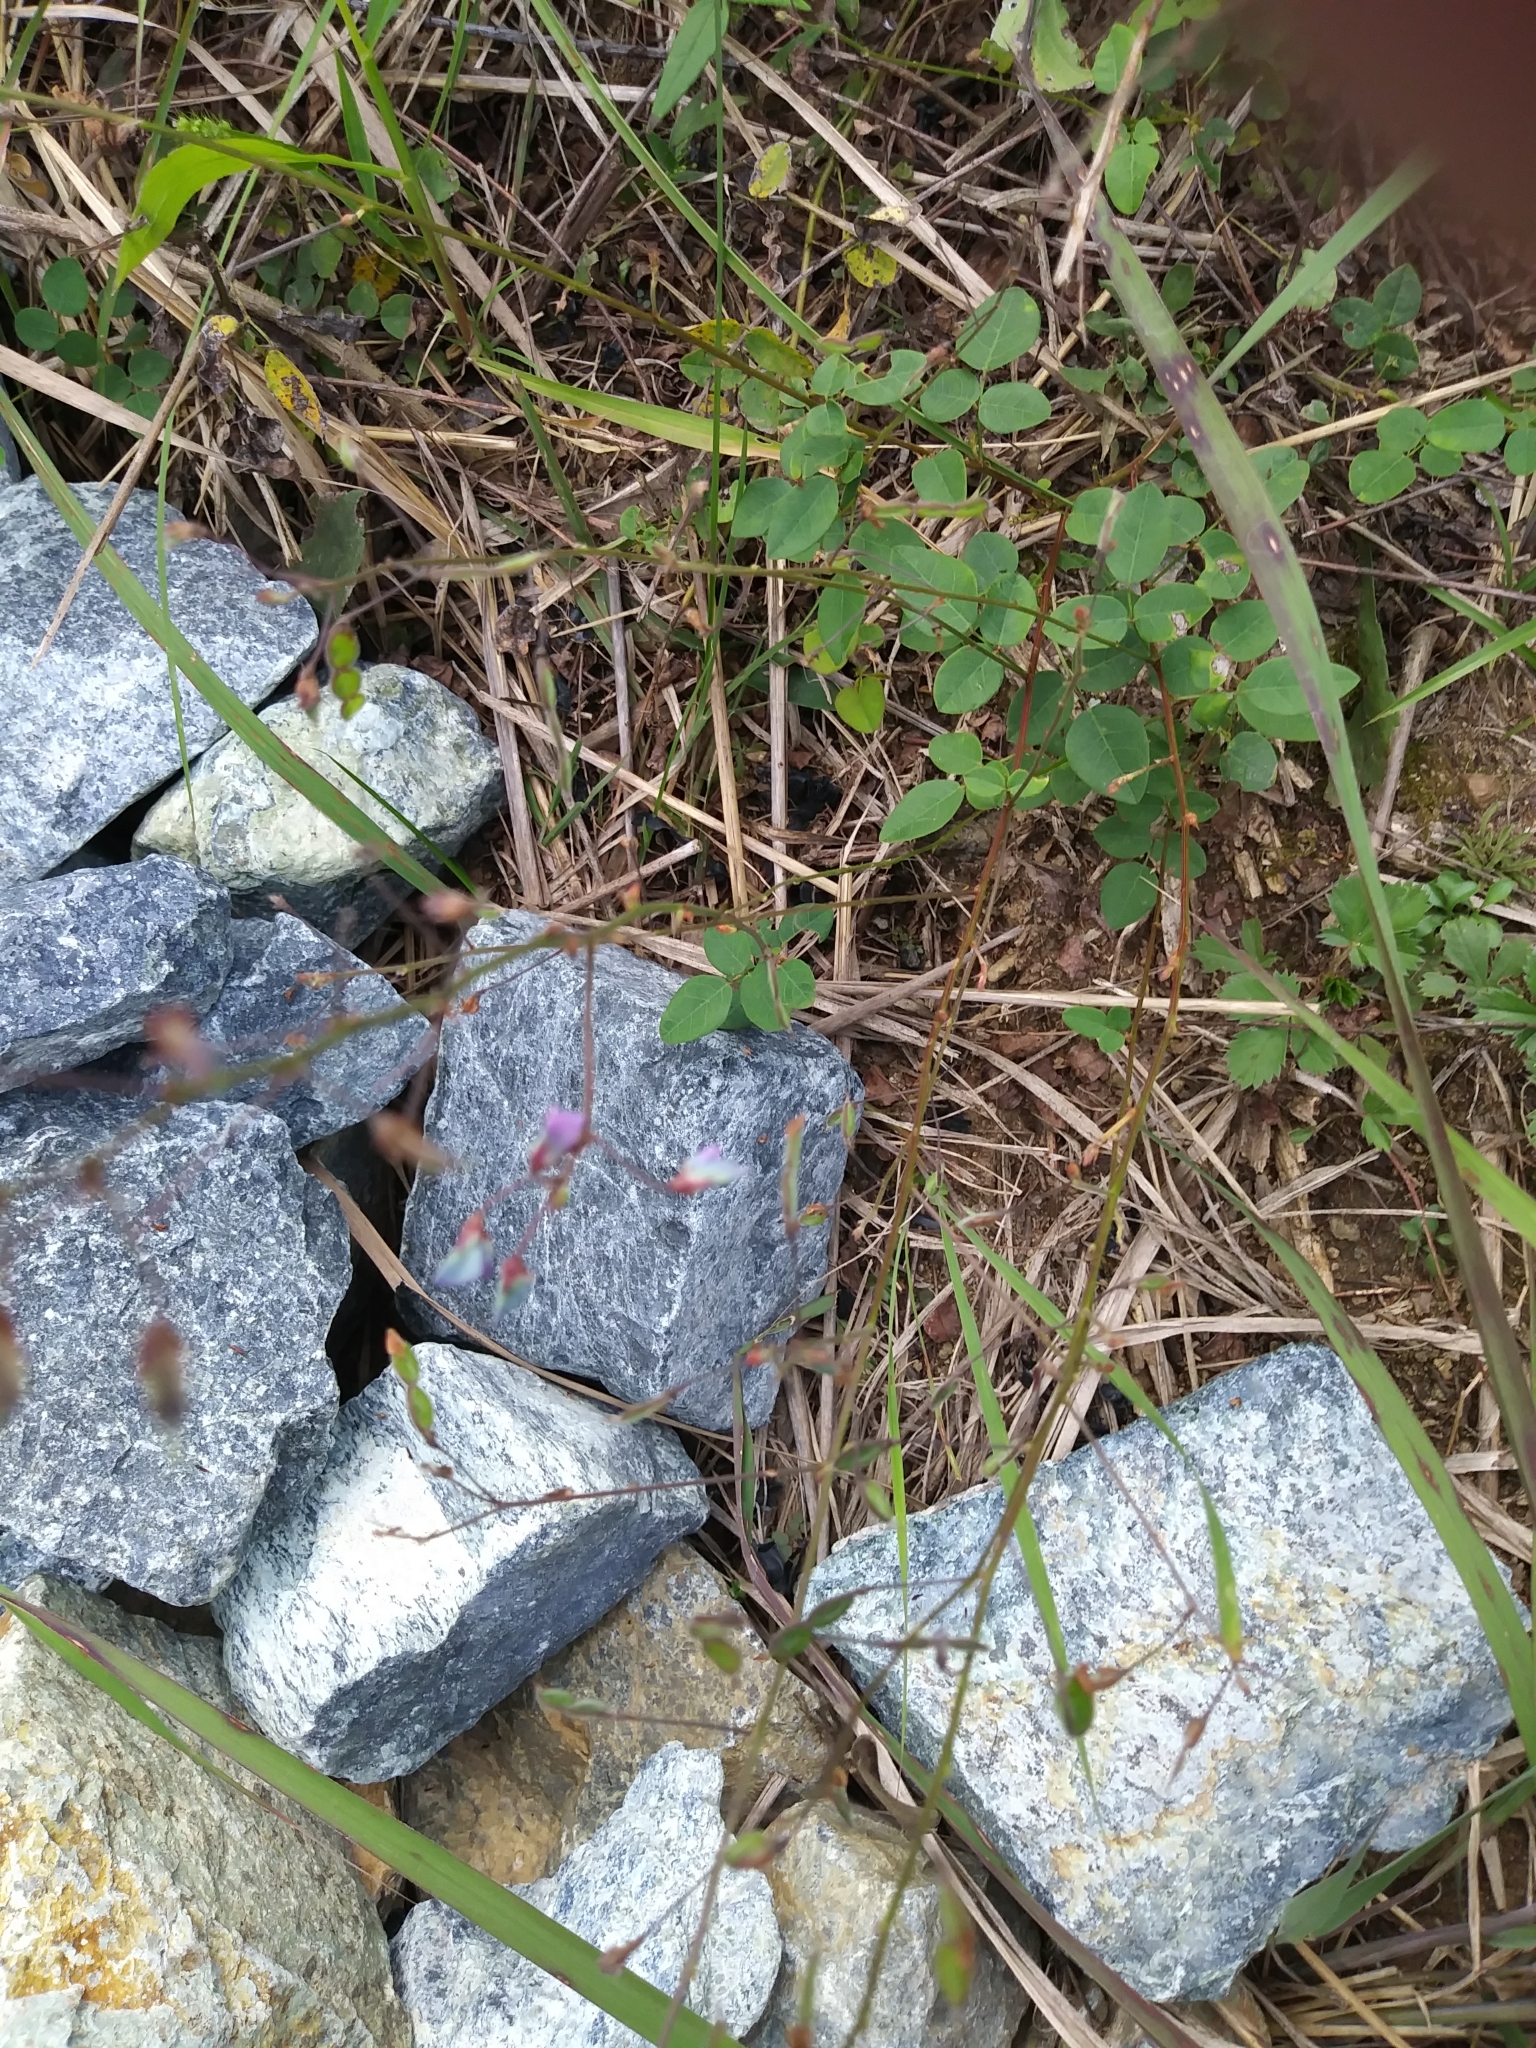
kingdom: Plantae
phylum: Tracheophyta
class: Magnoliopsida
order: Fabales
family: Fabaceae
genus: Desmodium
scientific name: Desmodium marilandicum
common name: Maryland tick-trefoil
